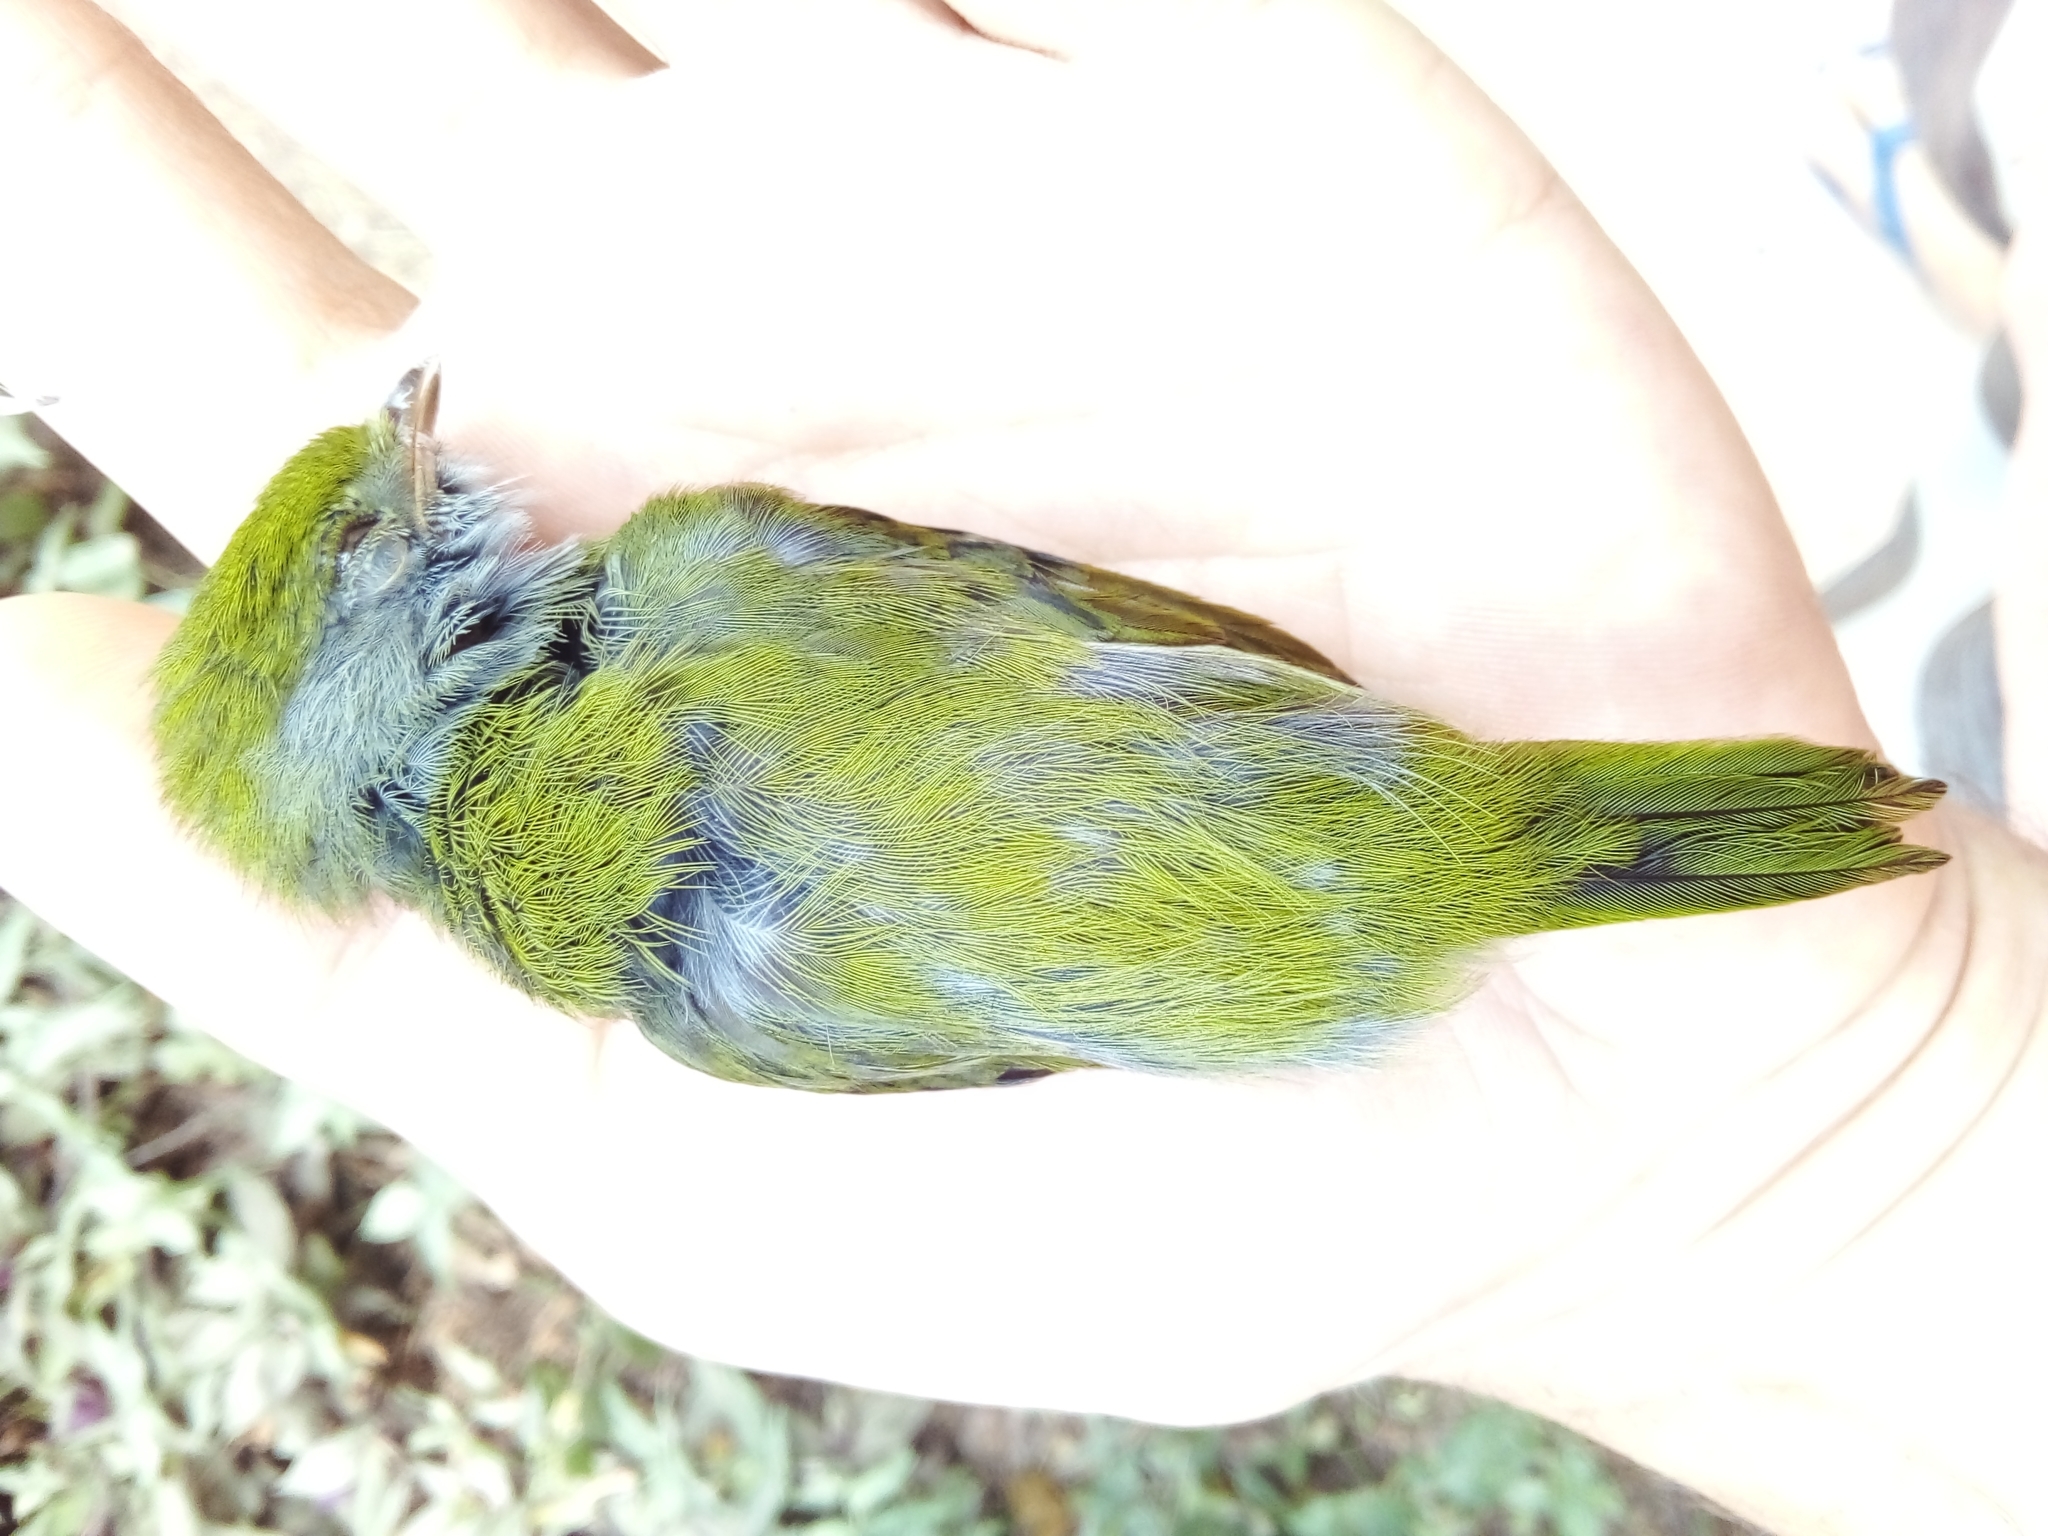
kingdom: Animalia
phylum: Chordata
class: Aves
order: Passeriformes
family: Pipridae
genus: Ilicura
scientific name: Ilicura militaris
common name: Pin-tailed manakin
